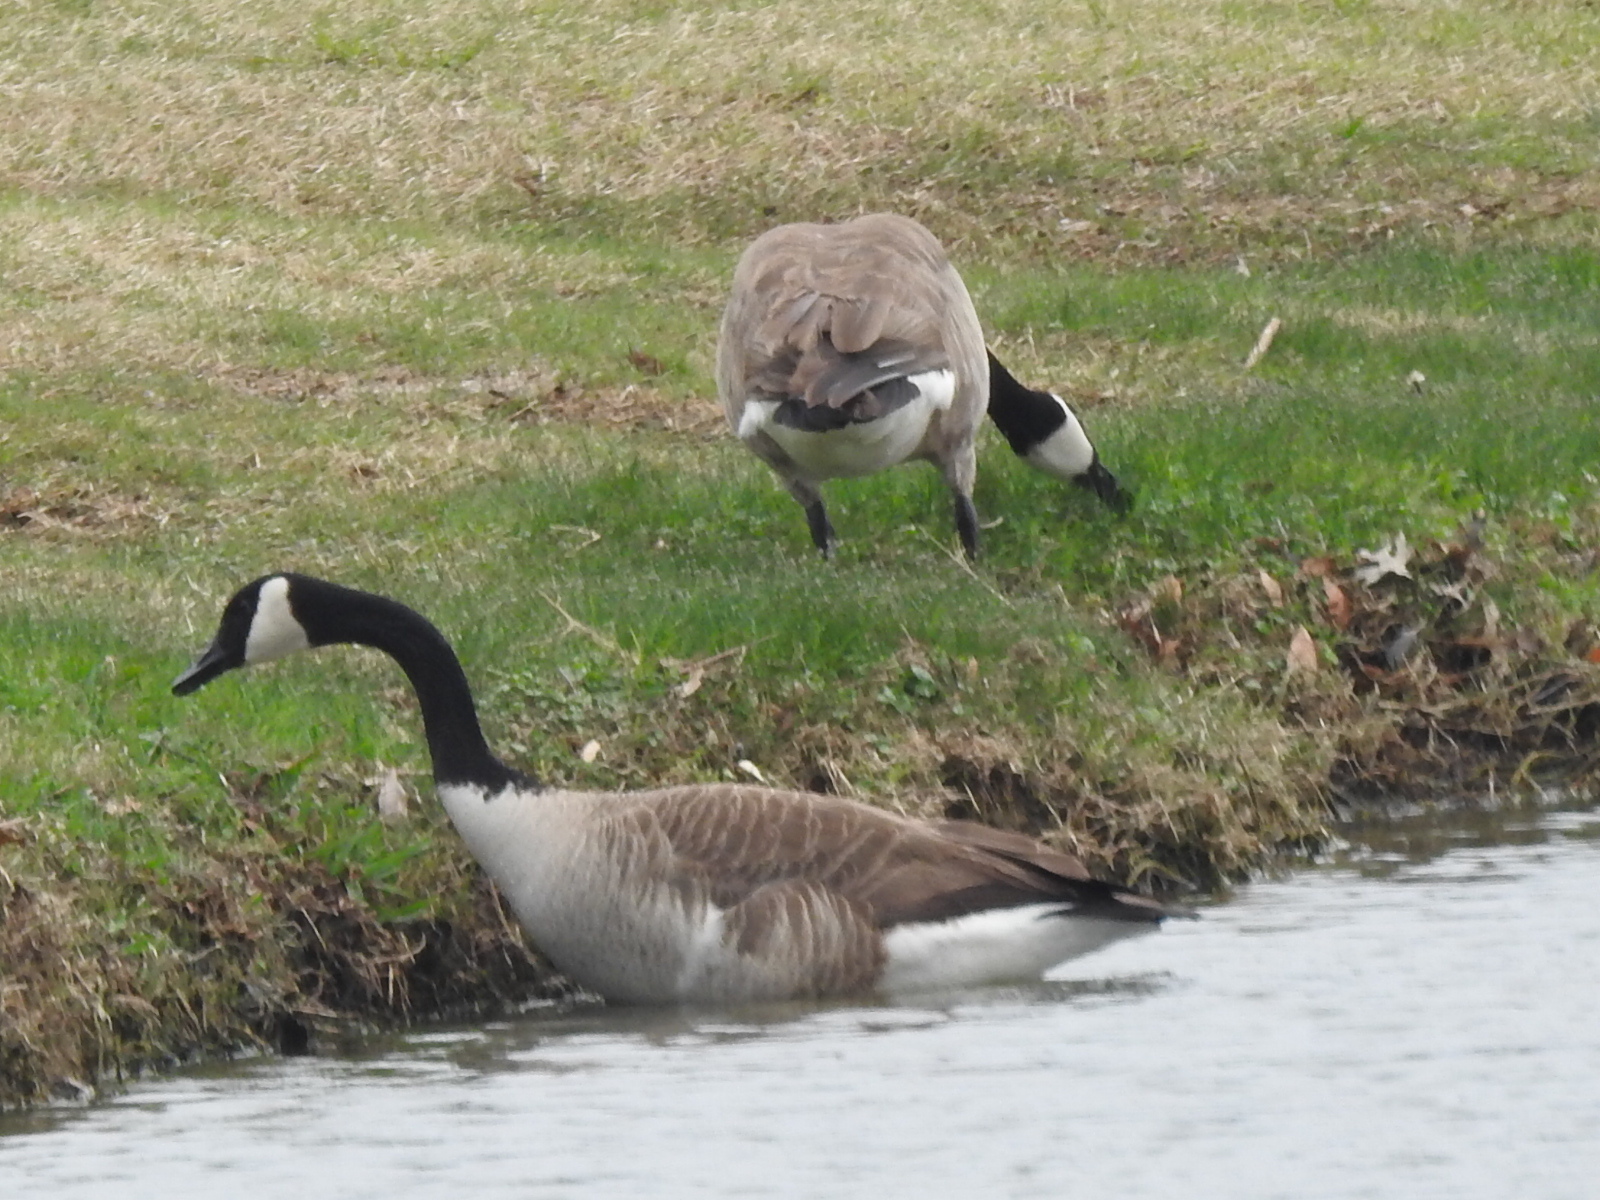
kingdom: Animalia
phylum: Chordata
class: Aves
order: Anseriformes
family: Anatidae
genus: Branta
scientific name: Branta canadensis
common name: Canada goose
